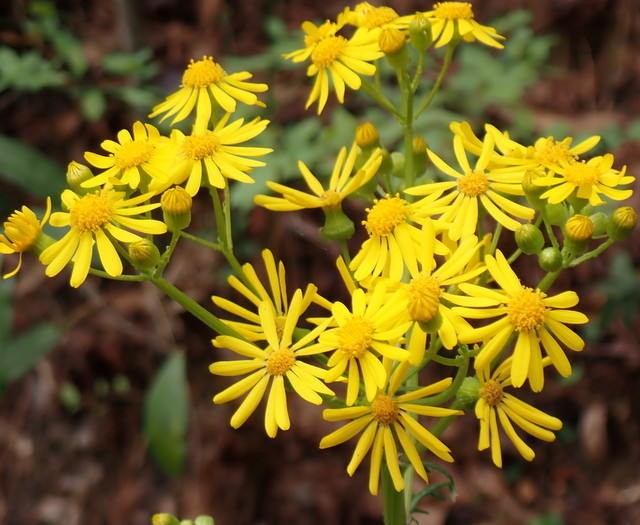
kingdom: Plantae
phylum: Tracheophyta
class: Magnoliopsida
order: Asterales
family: Asteraceae
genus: Packera
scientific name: Packera glabella
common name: Butterweed
